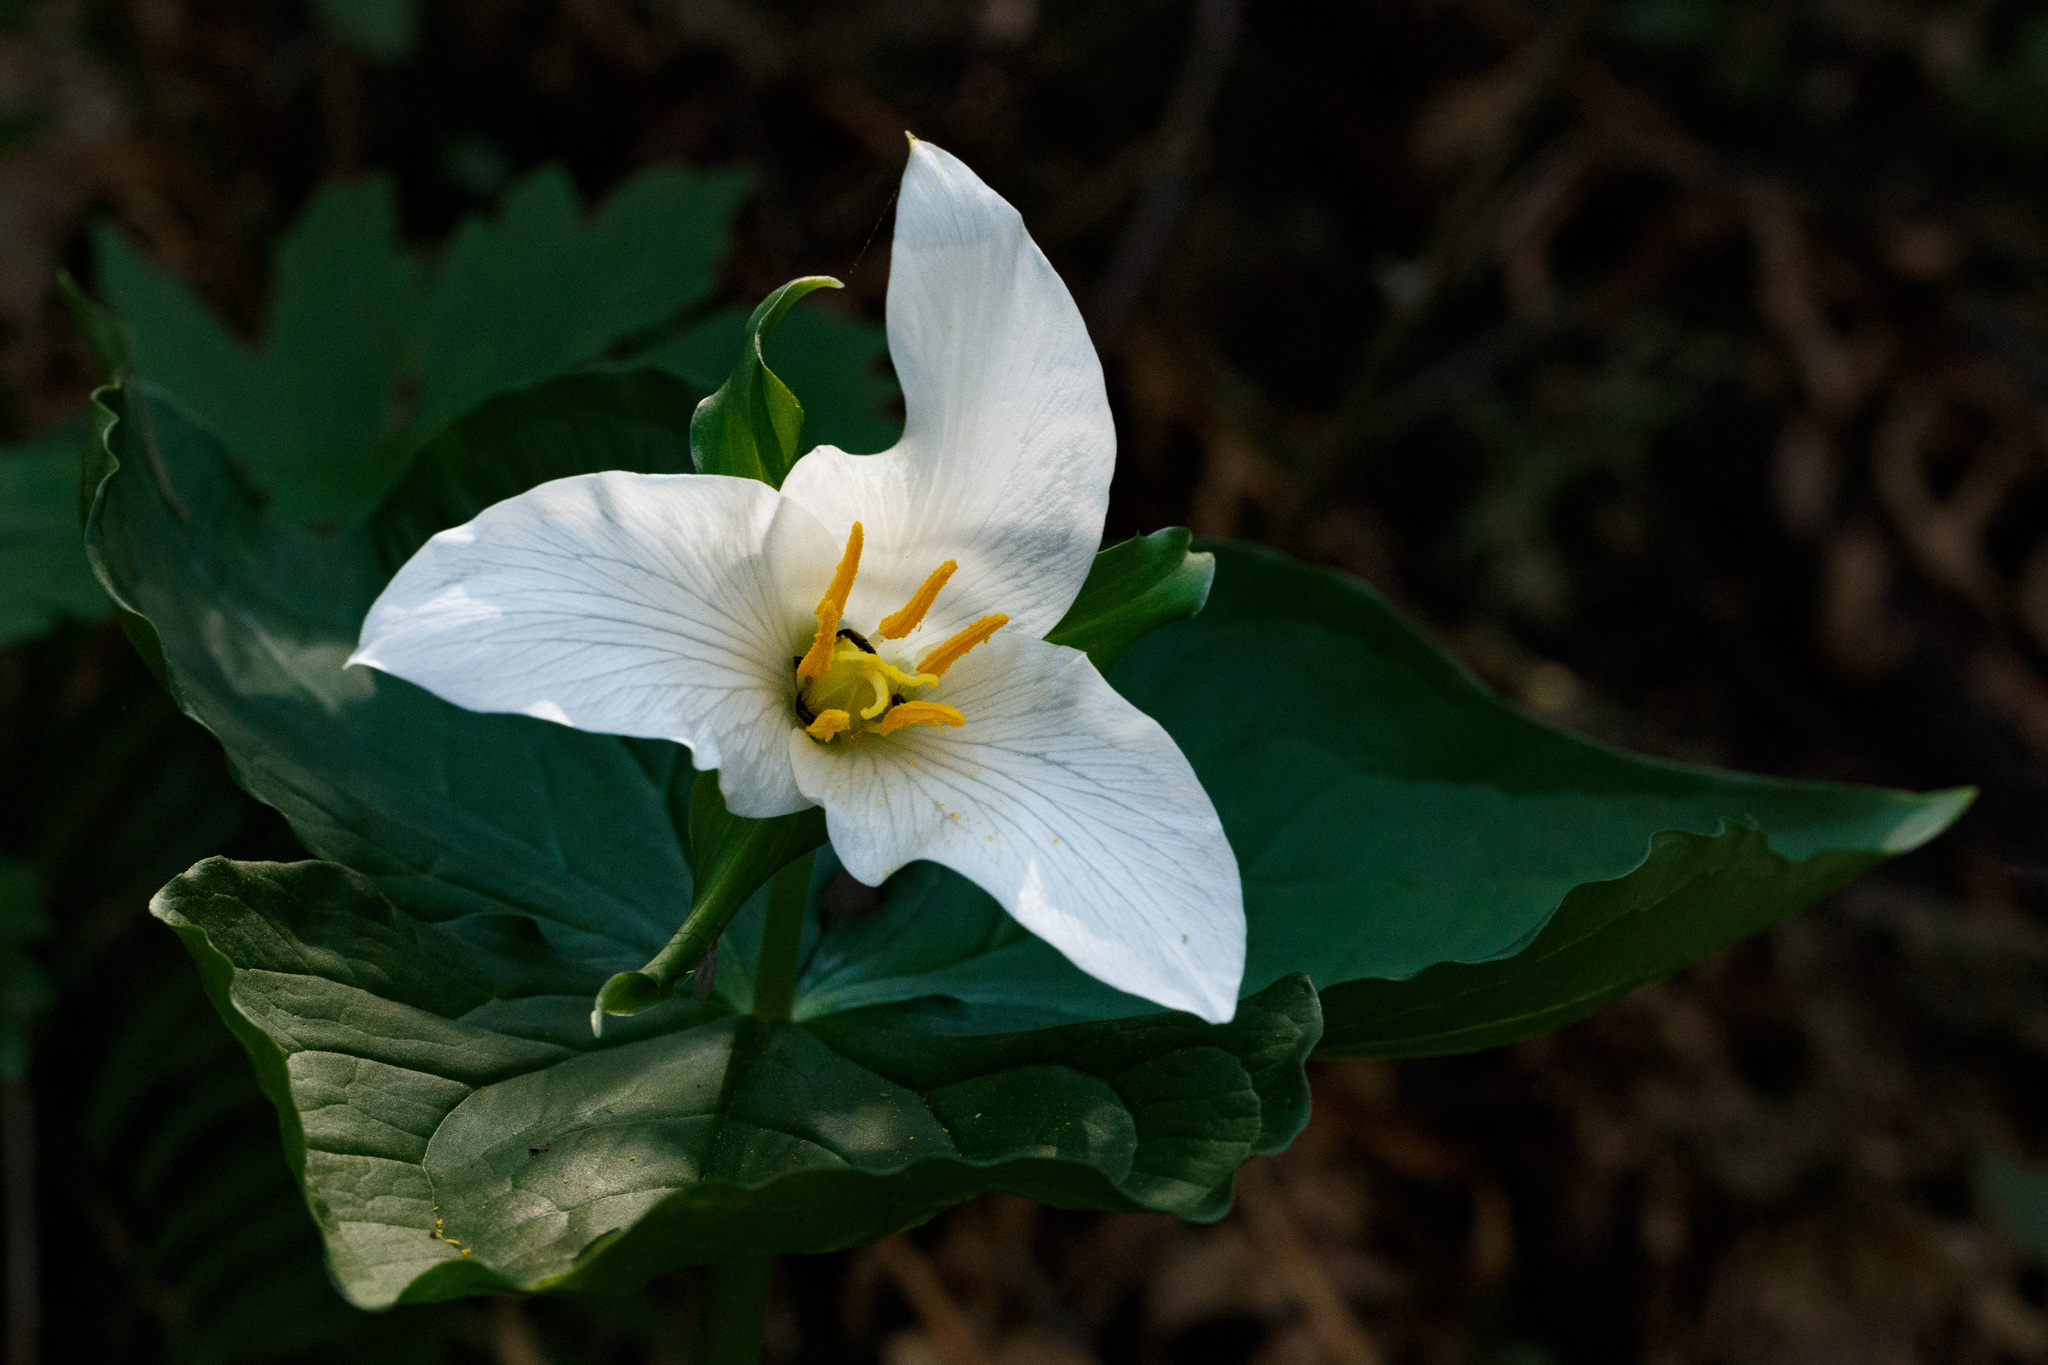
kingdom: Plantae
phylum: Tracheophyta
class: Liliopsida
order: Liliales
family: Melanthiaceae
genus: Trillium
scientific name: Trillium ovatum
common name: Pacific trillium
